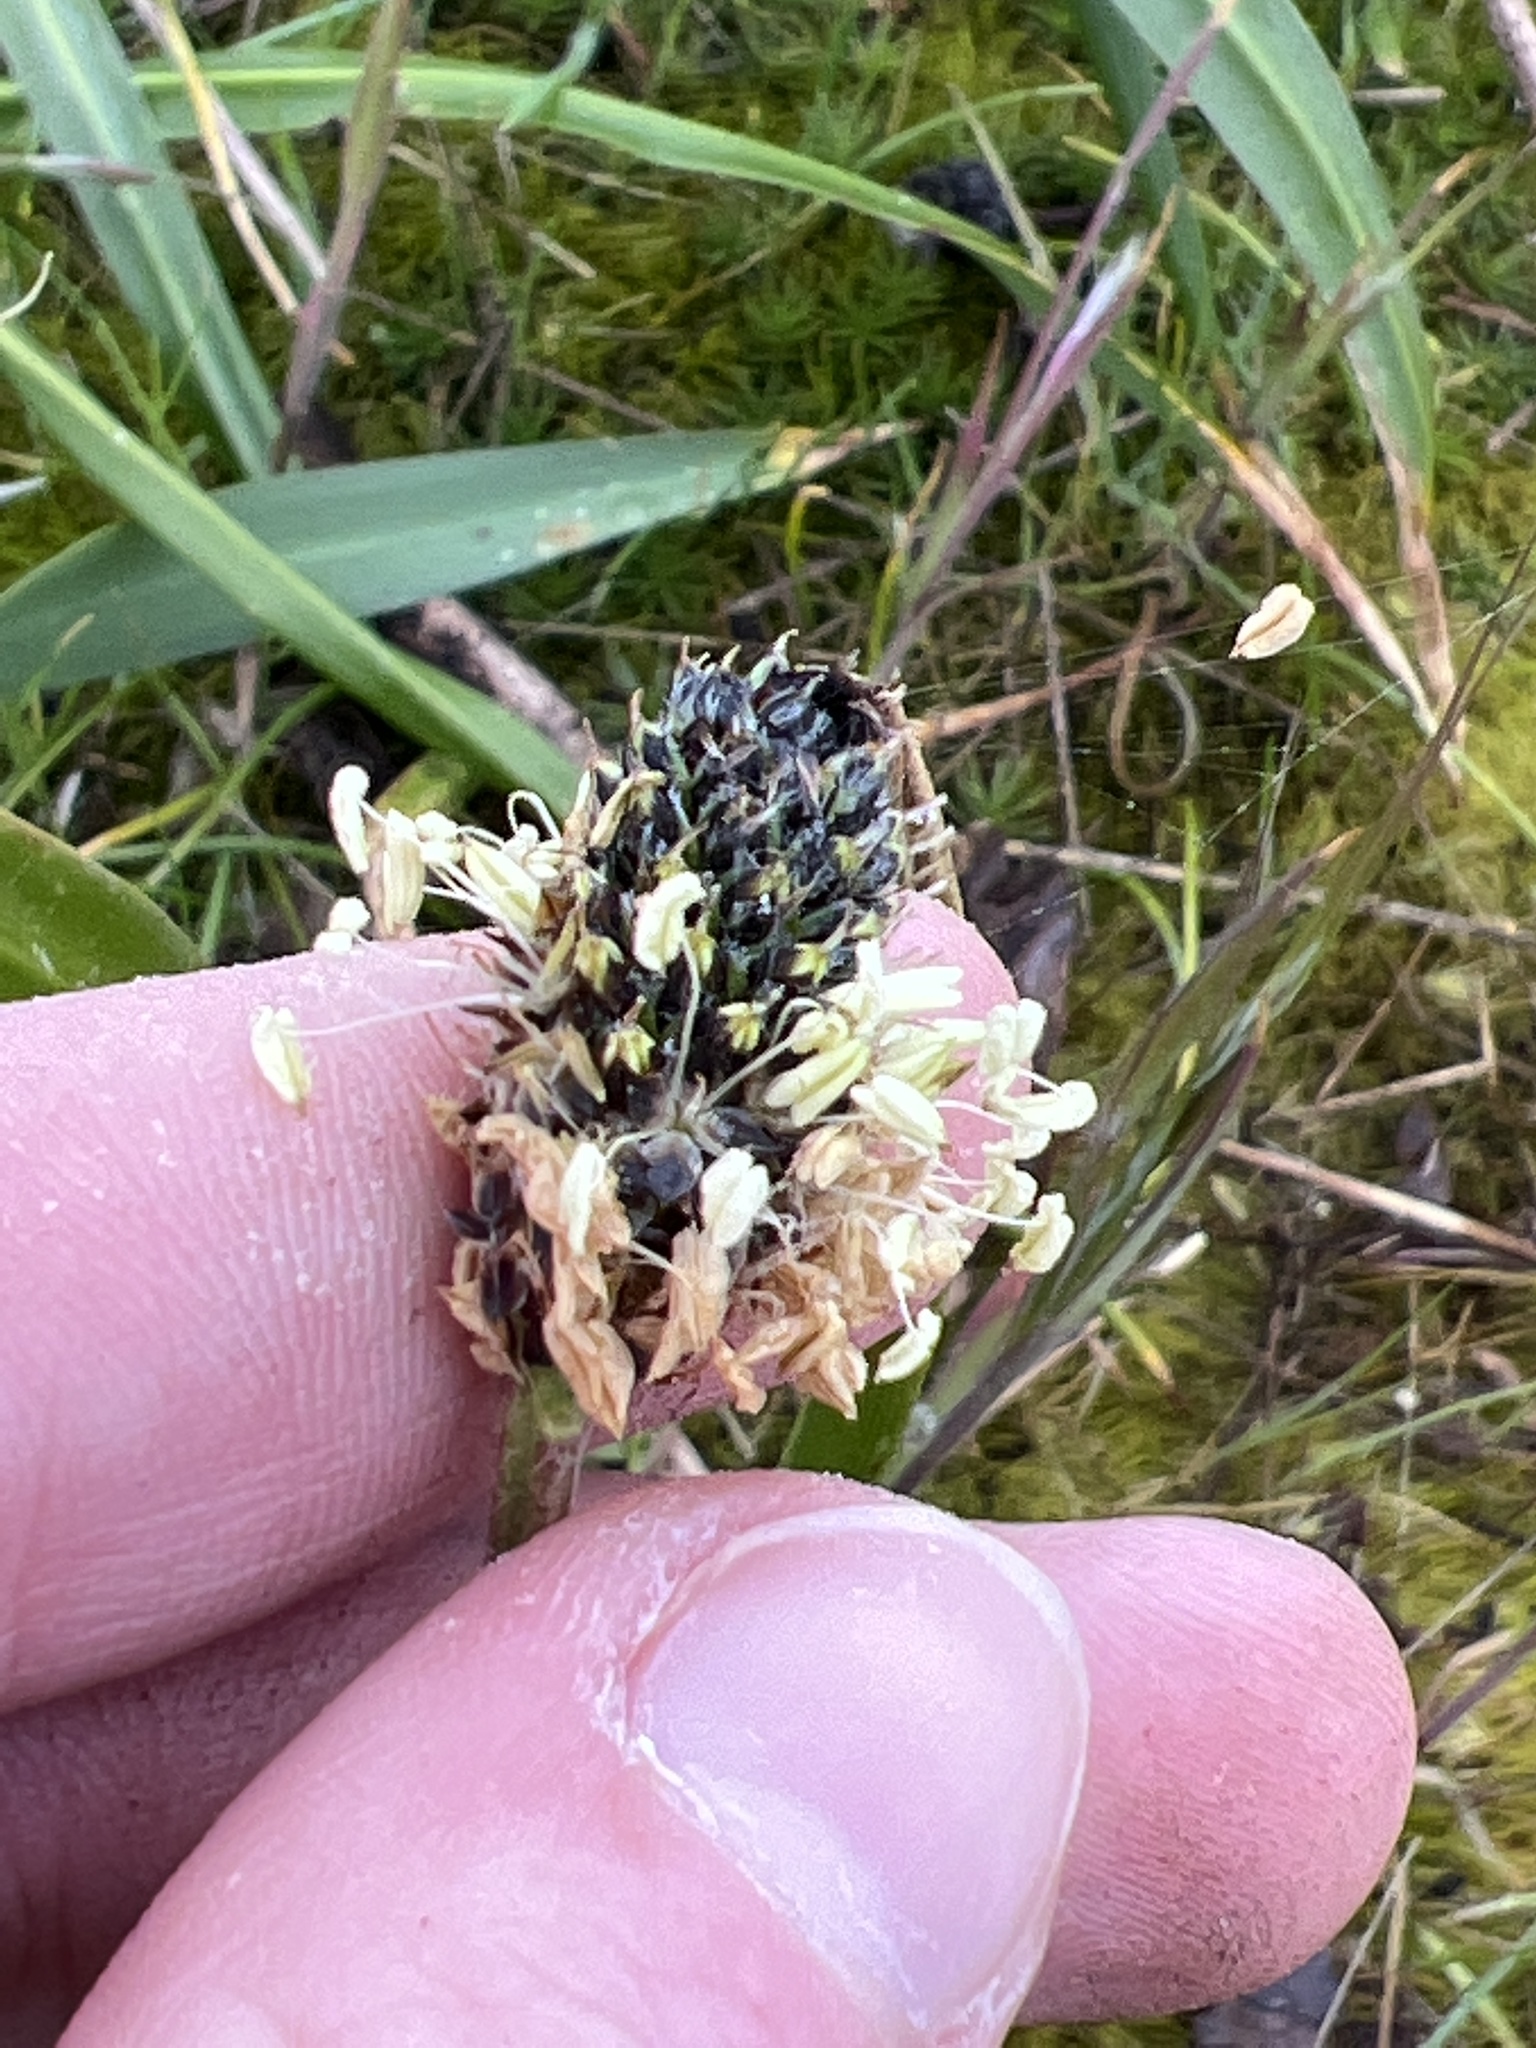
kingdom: Plantae
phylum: Tracheophyta
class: Magnoliopsida
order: Lamiales
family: Plantaginaceae
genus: Plantago
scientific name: Plantago lanceolata
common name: Ribwort plantain
